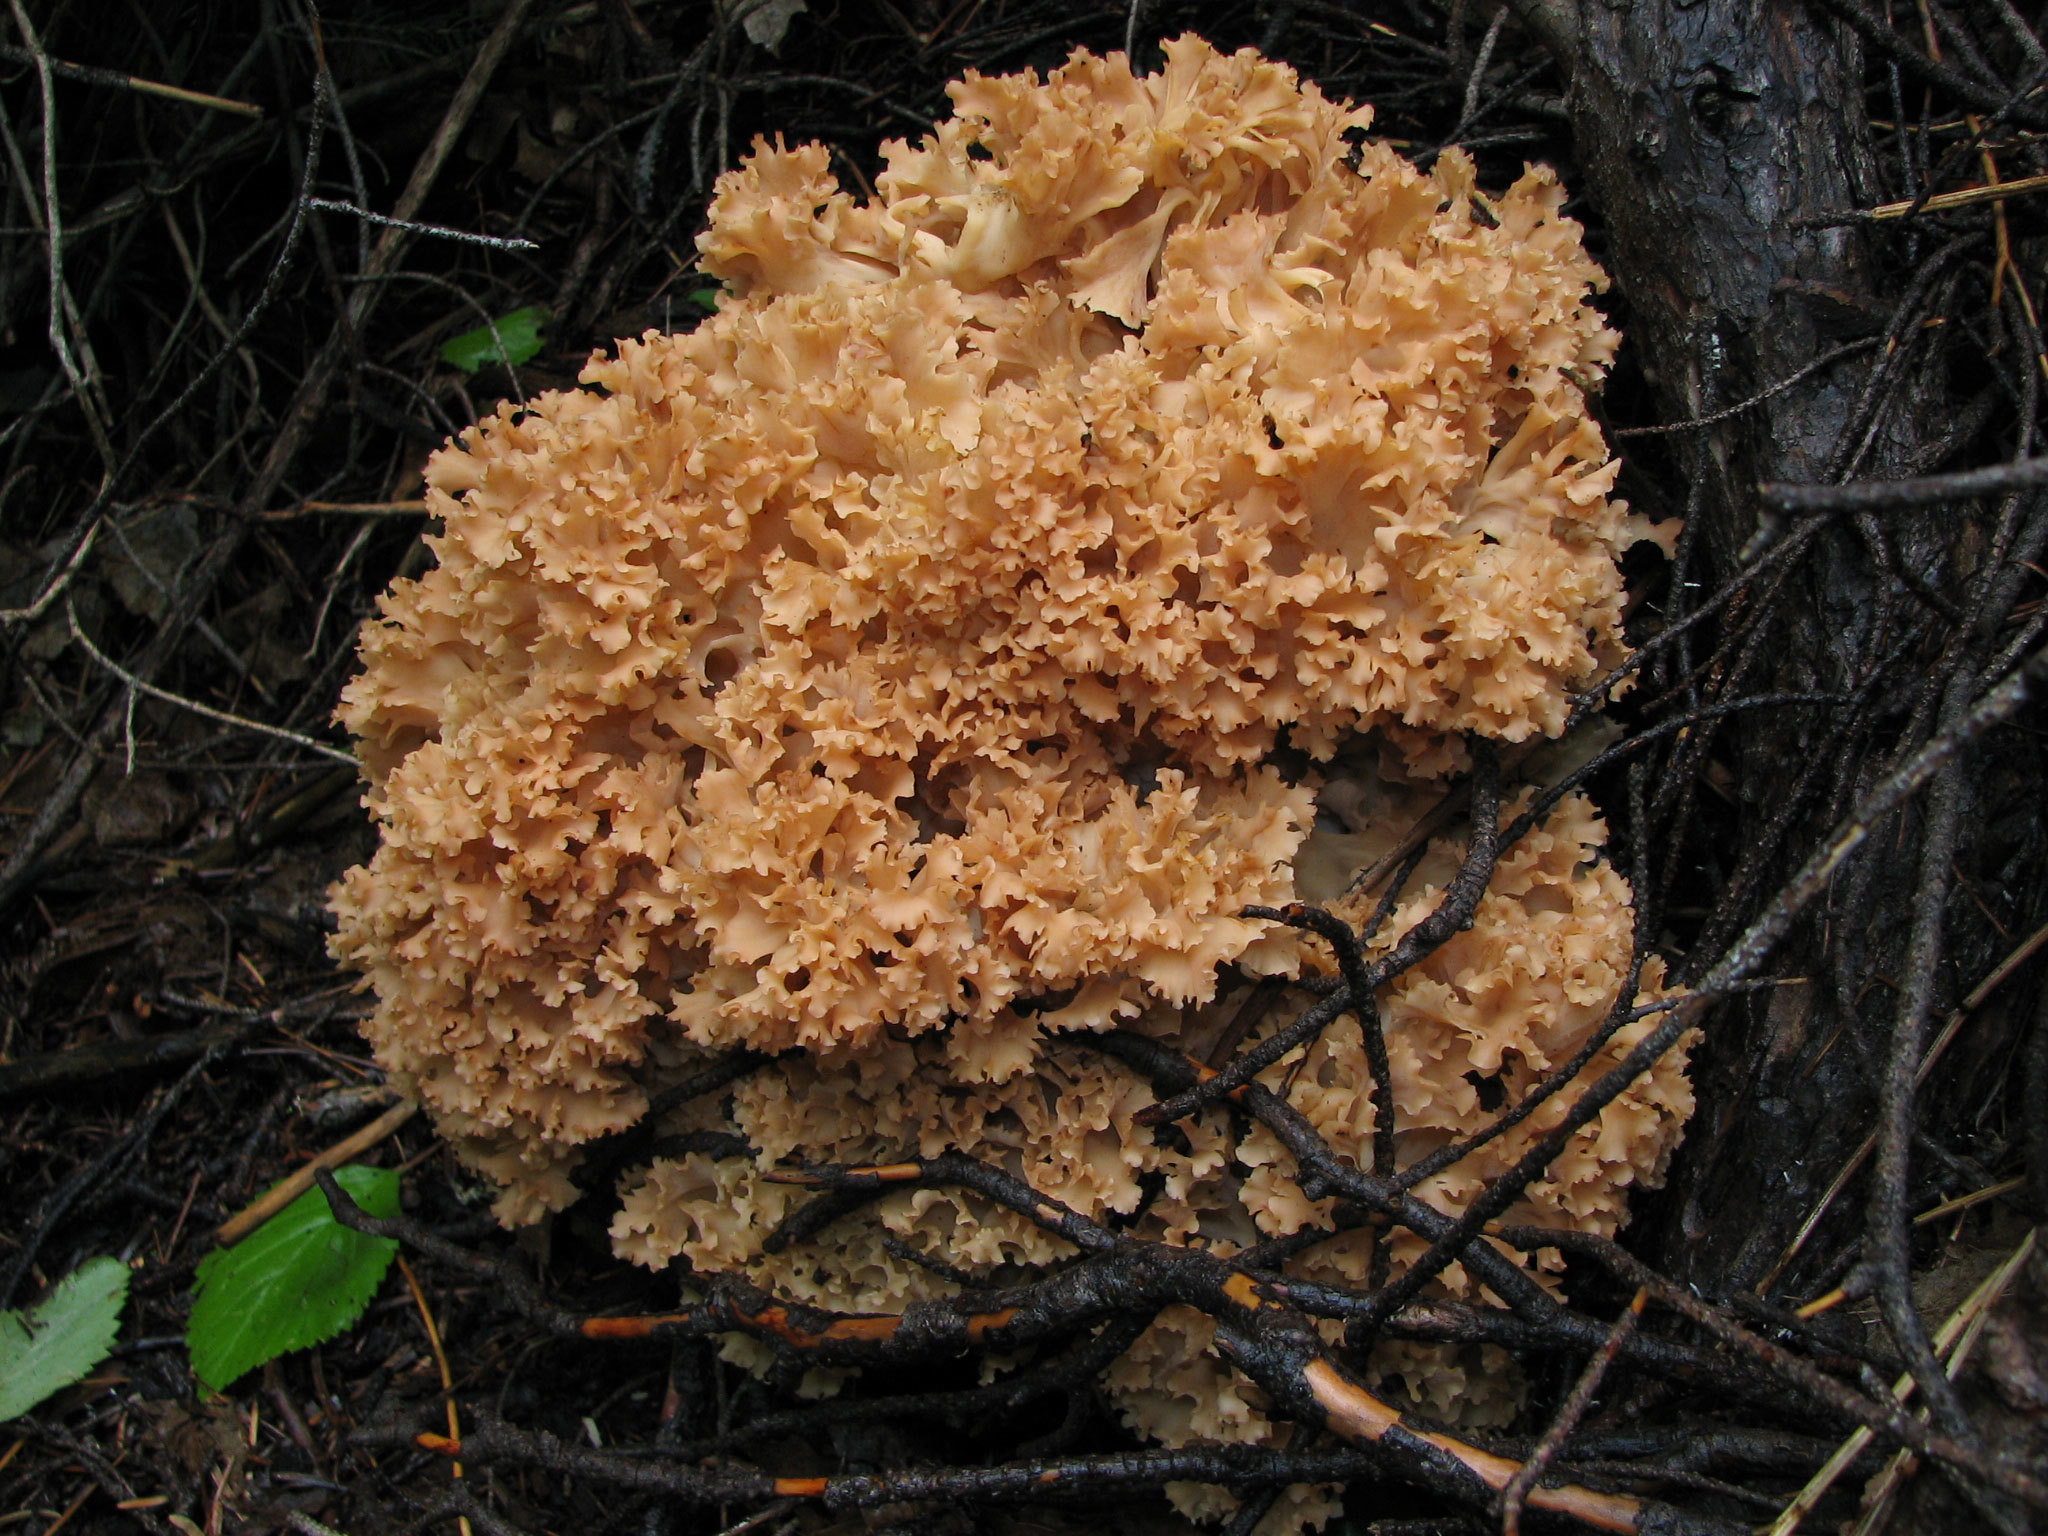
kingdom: Fungi
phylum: Basidiomycota
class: Agaricomycetes
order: Polyporales
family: Sparassidaceae
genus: Sparassis
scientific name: Sparassis americana
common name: American cauliflower mushroom
